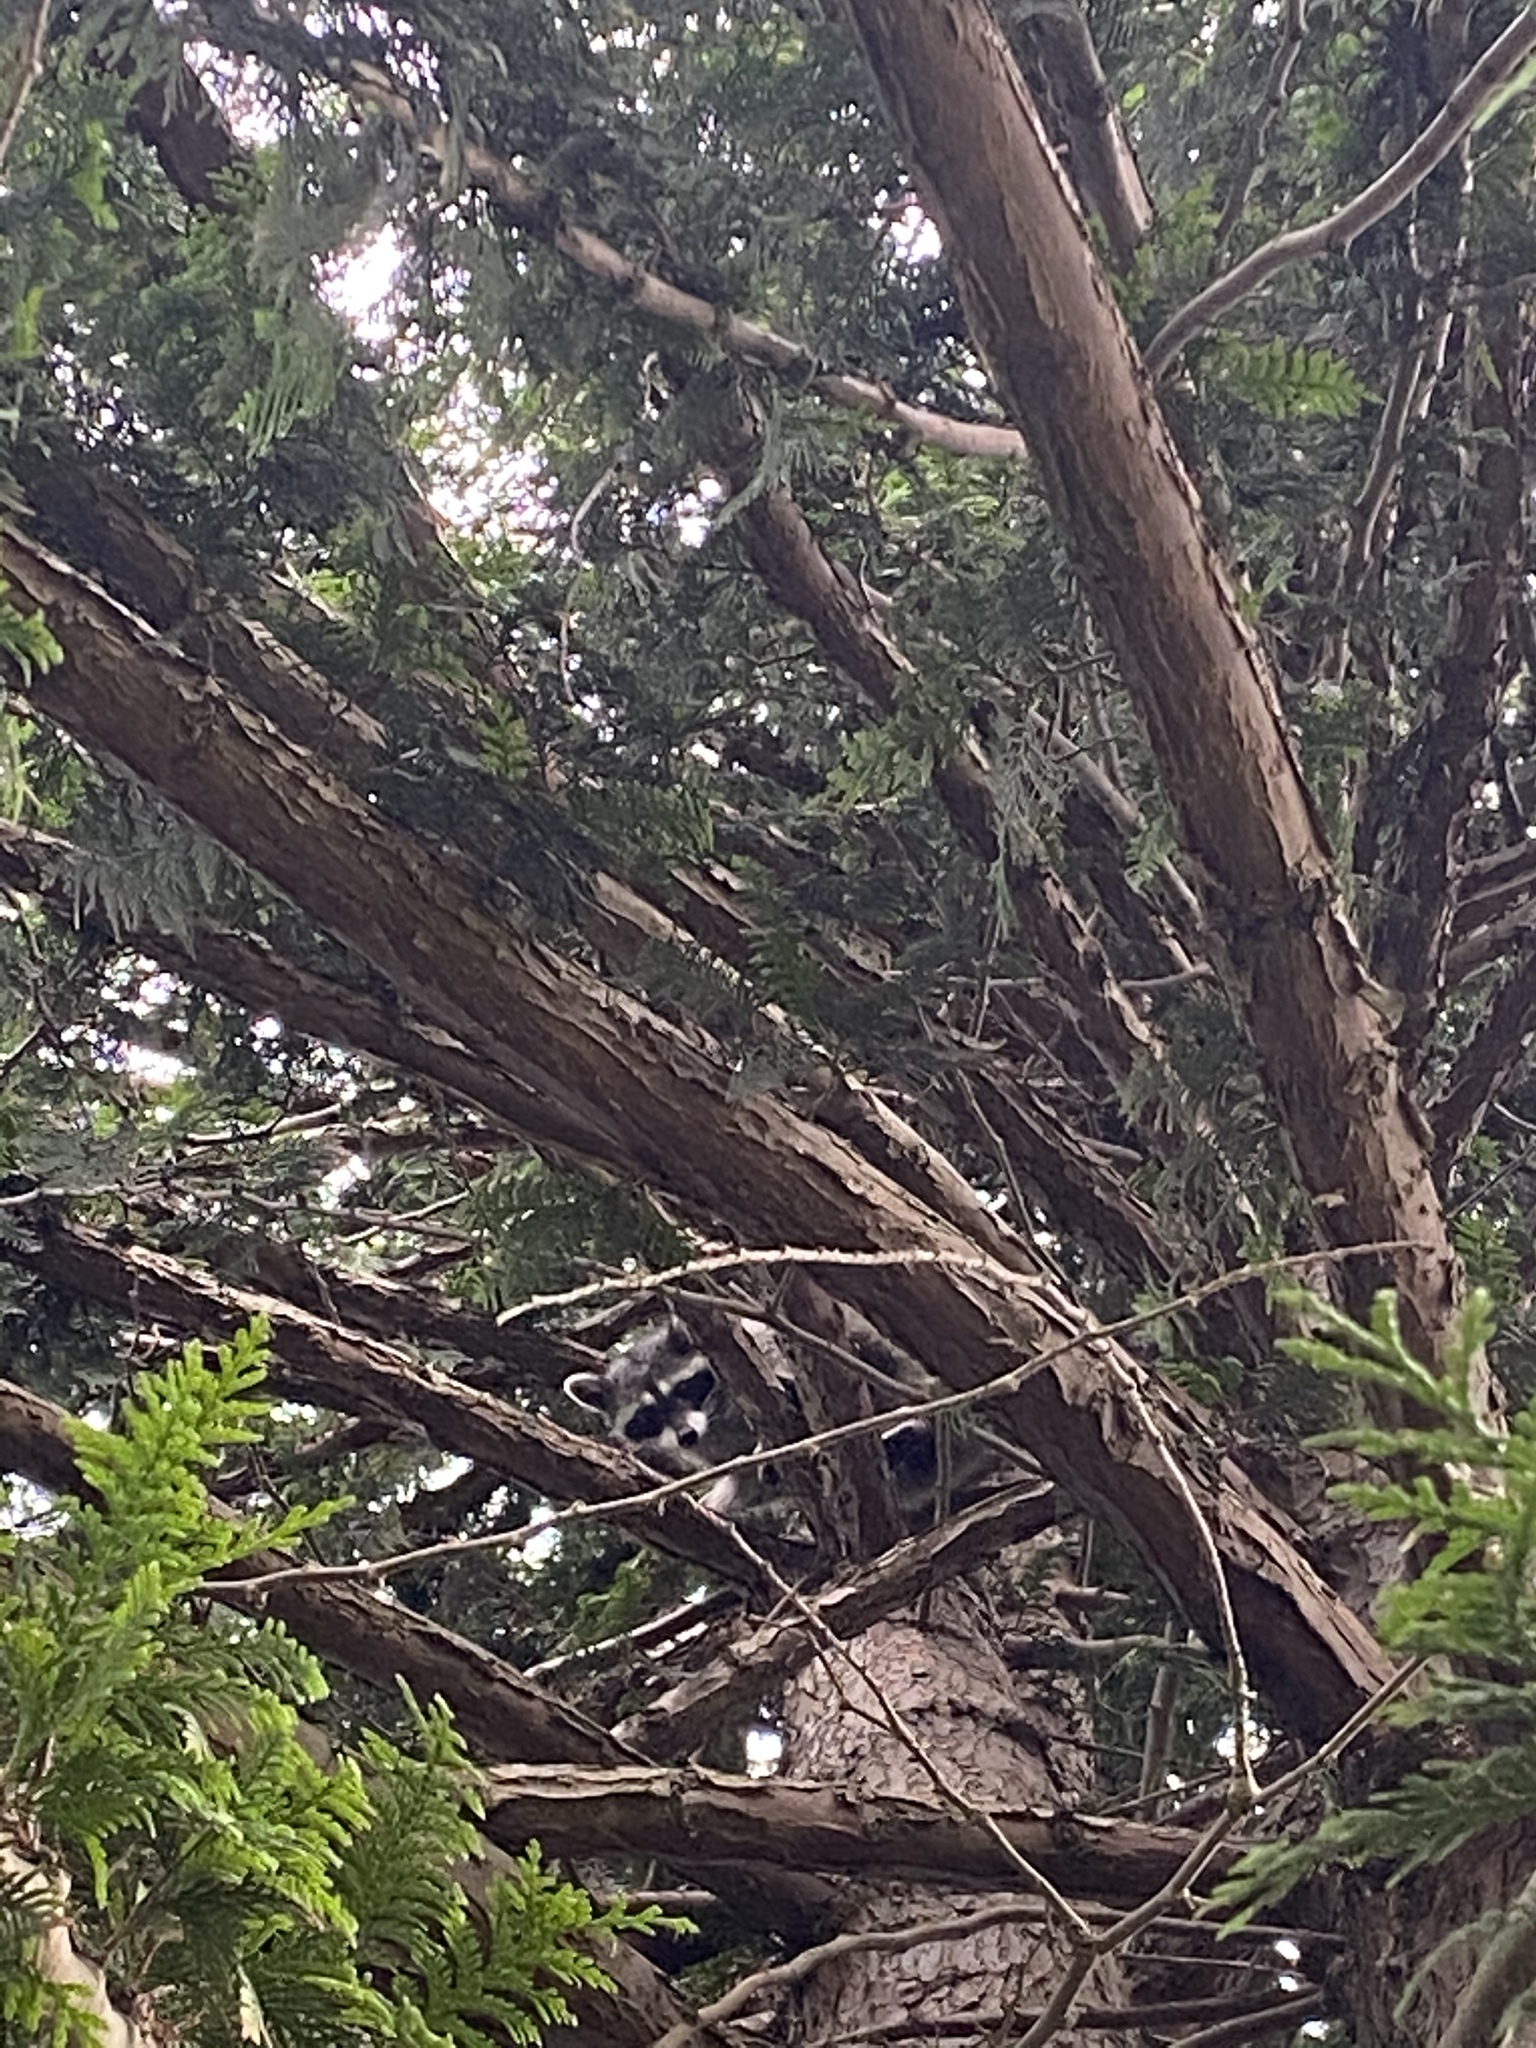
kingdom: Animalia
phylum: Chordata
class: Mammalia
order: Carnivora
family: Procyonidae
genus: Procyon
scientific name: Procyon lotor
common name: Raccoon
